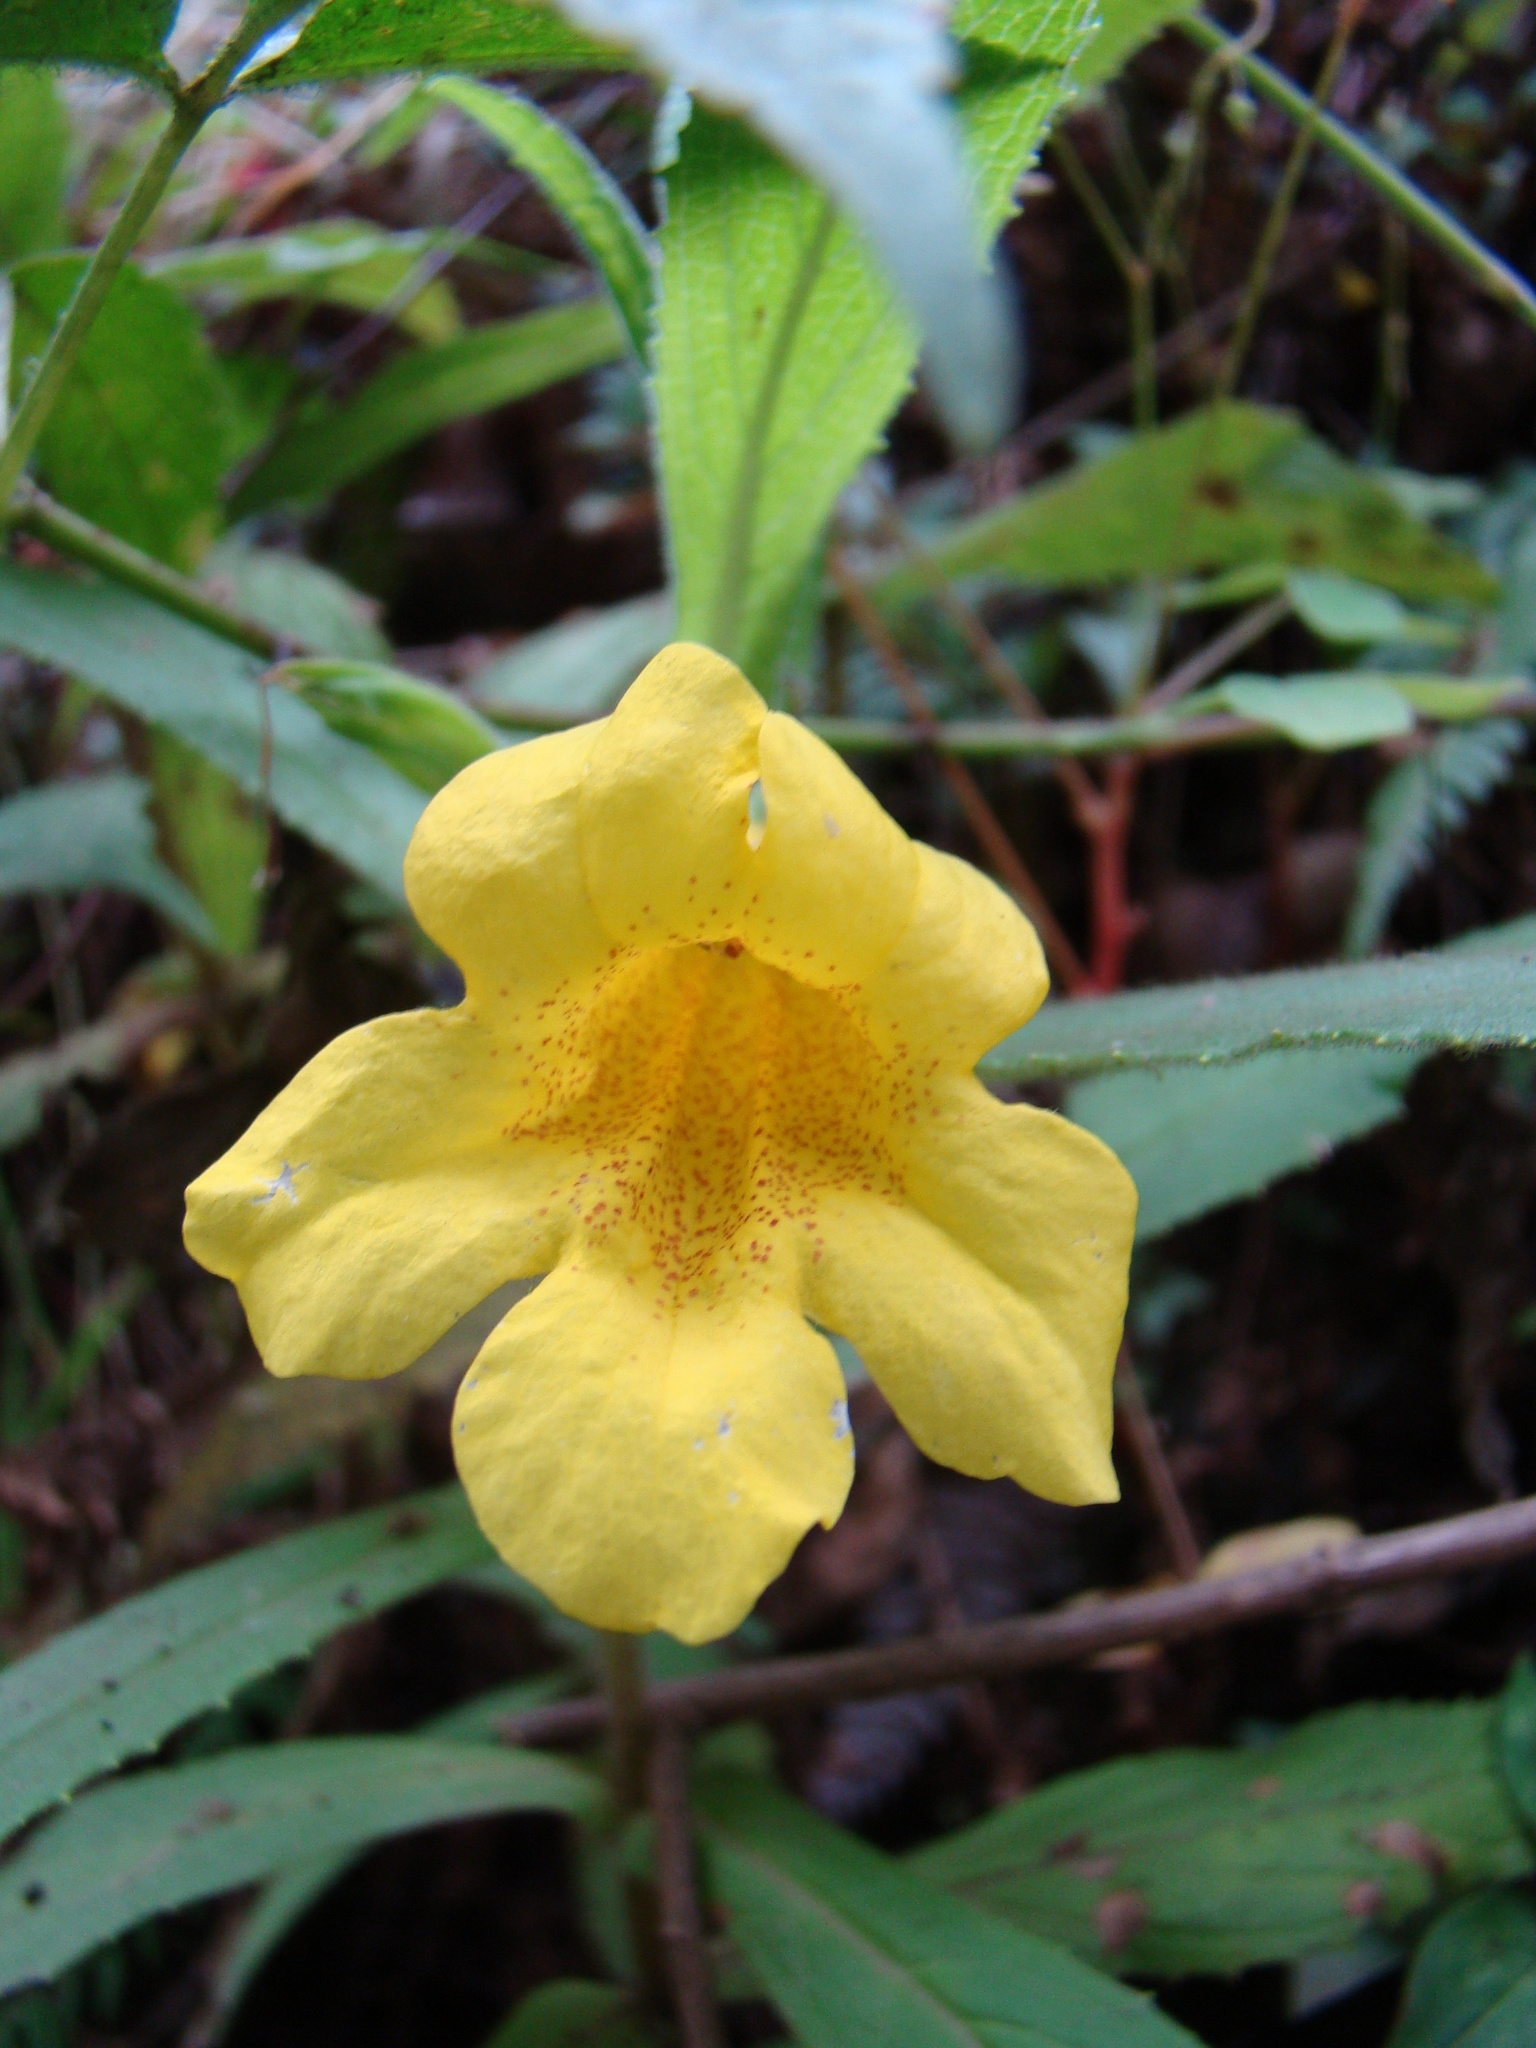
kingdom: Plantae
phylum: Tracheophyta
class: Magnoliopsida
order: Lamiales
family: Phrymaceae
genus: Hemichaena
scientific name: Hemichaena fruticosa
